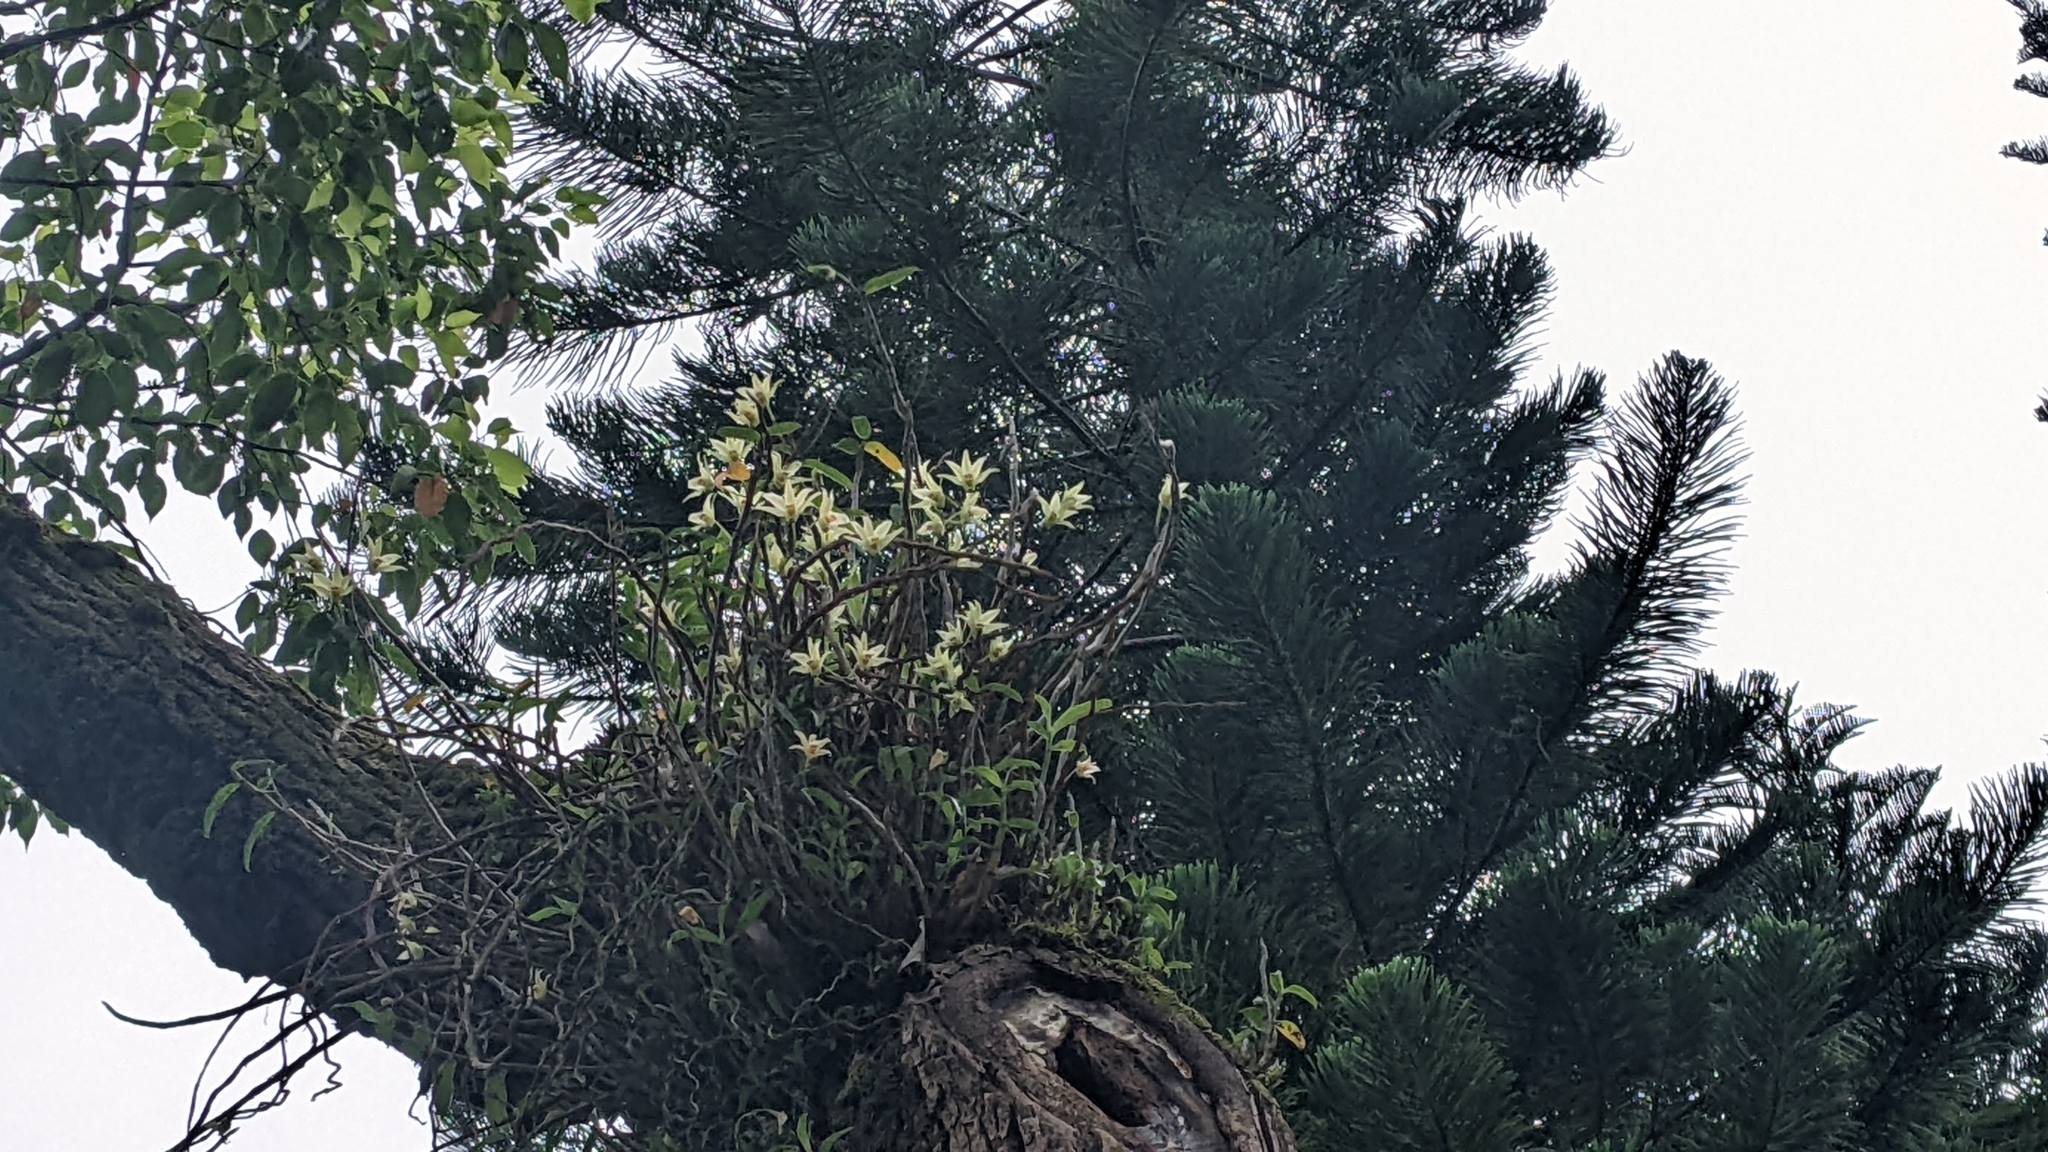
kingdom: Plantae
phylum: Tracheophyta
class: Liliopsida
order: Asparagales
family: Orchidaceae
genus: Dendrobium
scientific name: Dendrobium officinale
